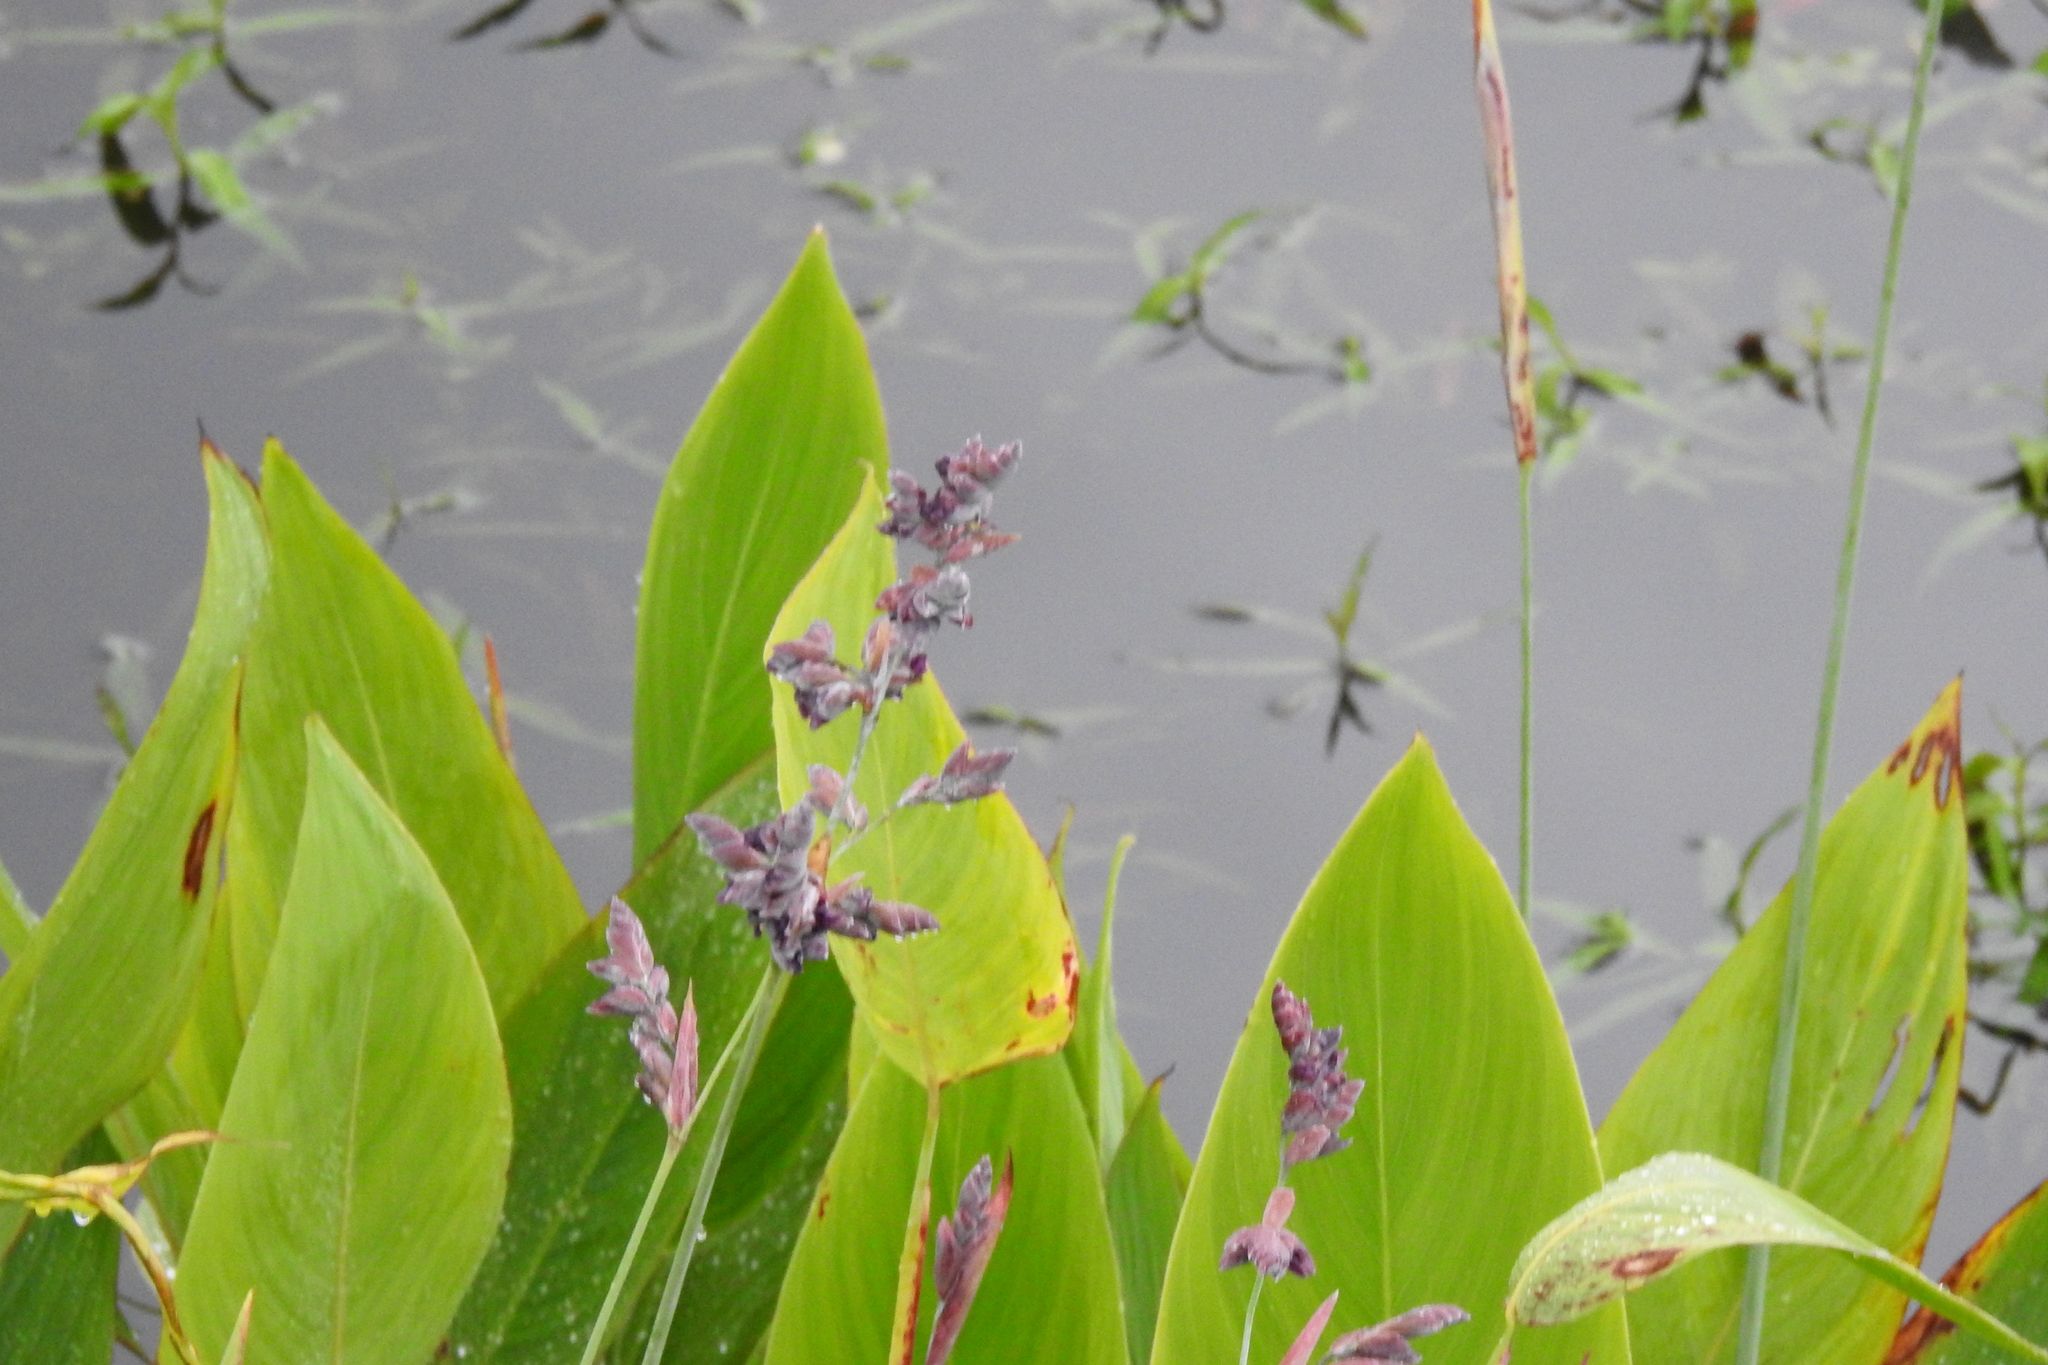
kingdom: Plantae
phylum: Tracheophyta
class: Liliopsida
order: Zingiberales
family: Marantaceae
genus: Thalia
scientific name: Thalia dealbata
